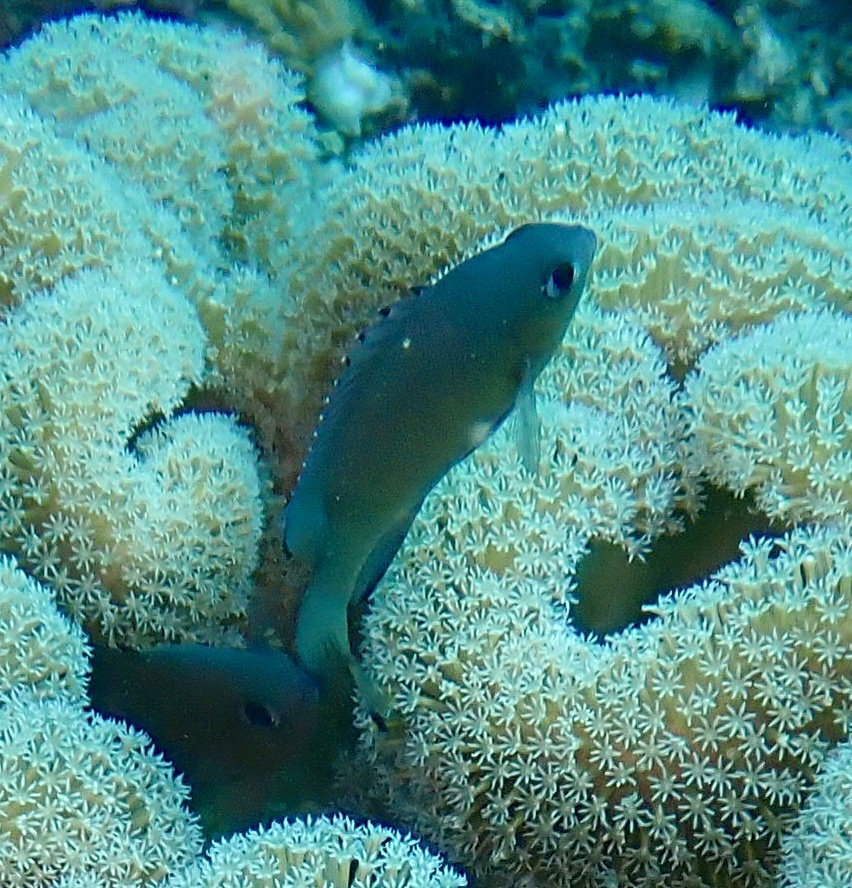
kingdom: Animalia
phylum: Chordata
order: Perciformes
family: Pomacentridae
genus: Chromis
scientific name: Chromis lepidolepis
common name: Scaly chromis
